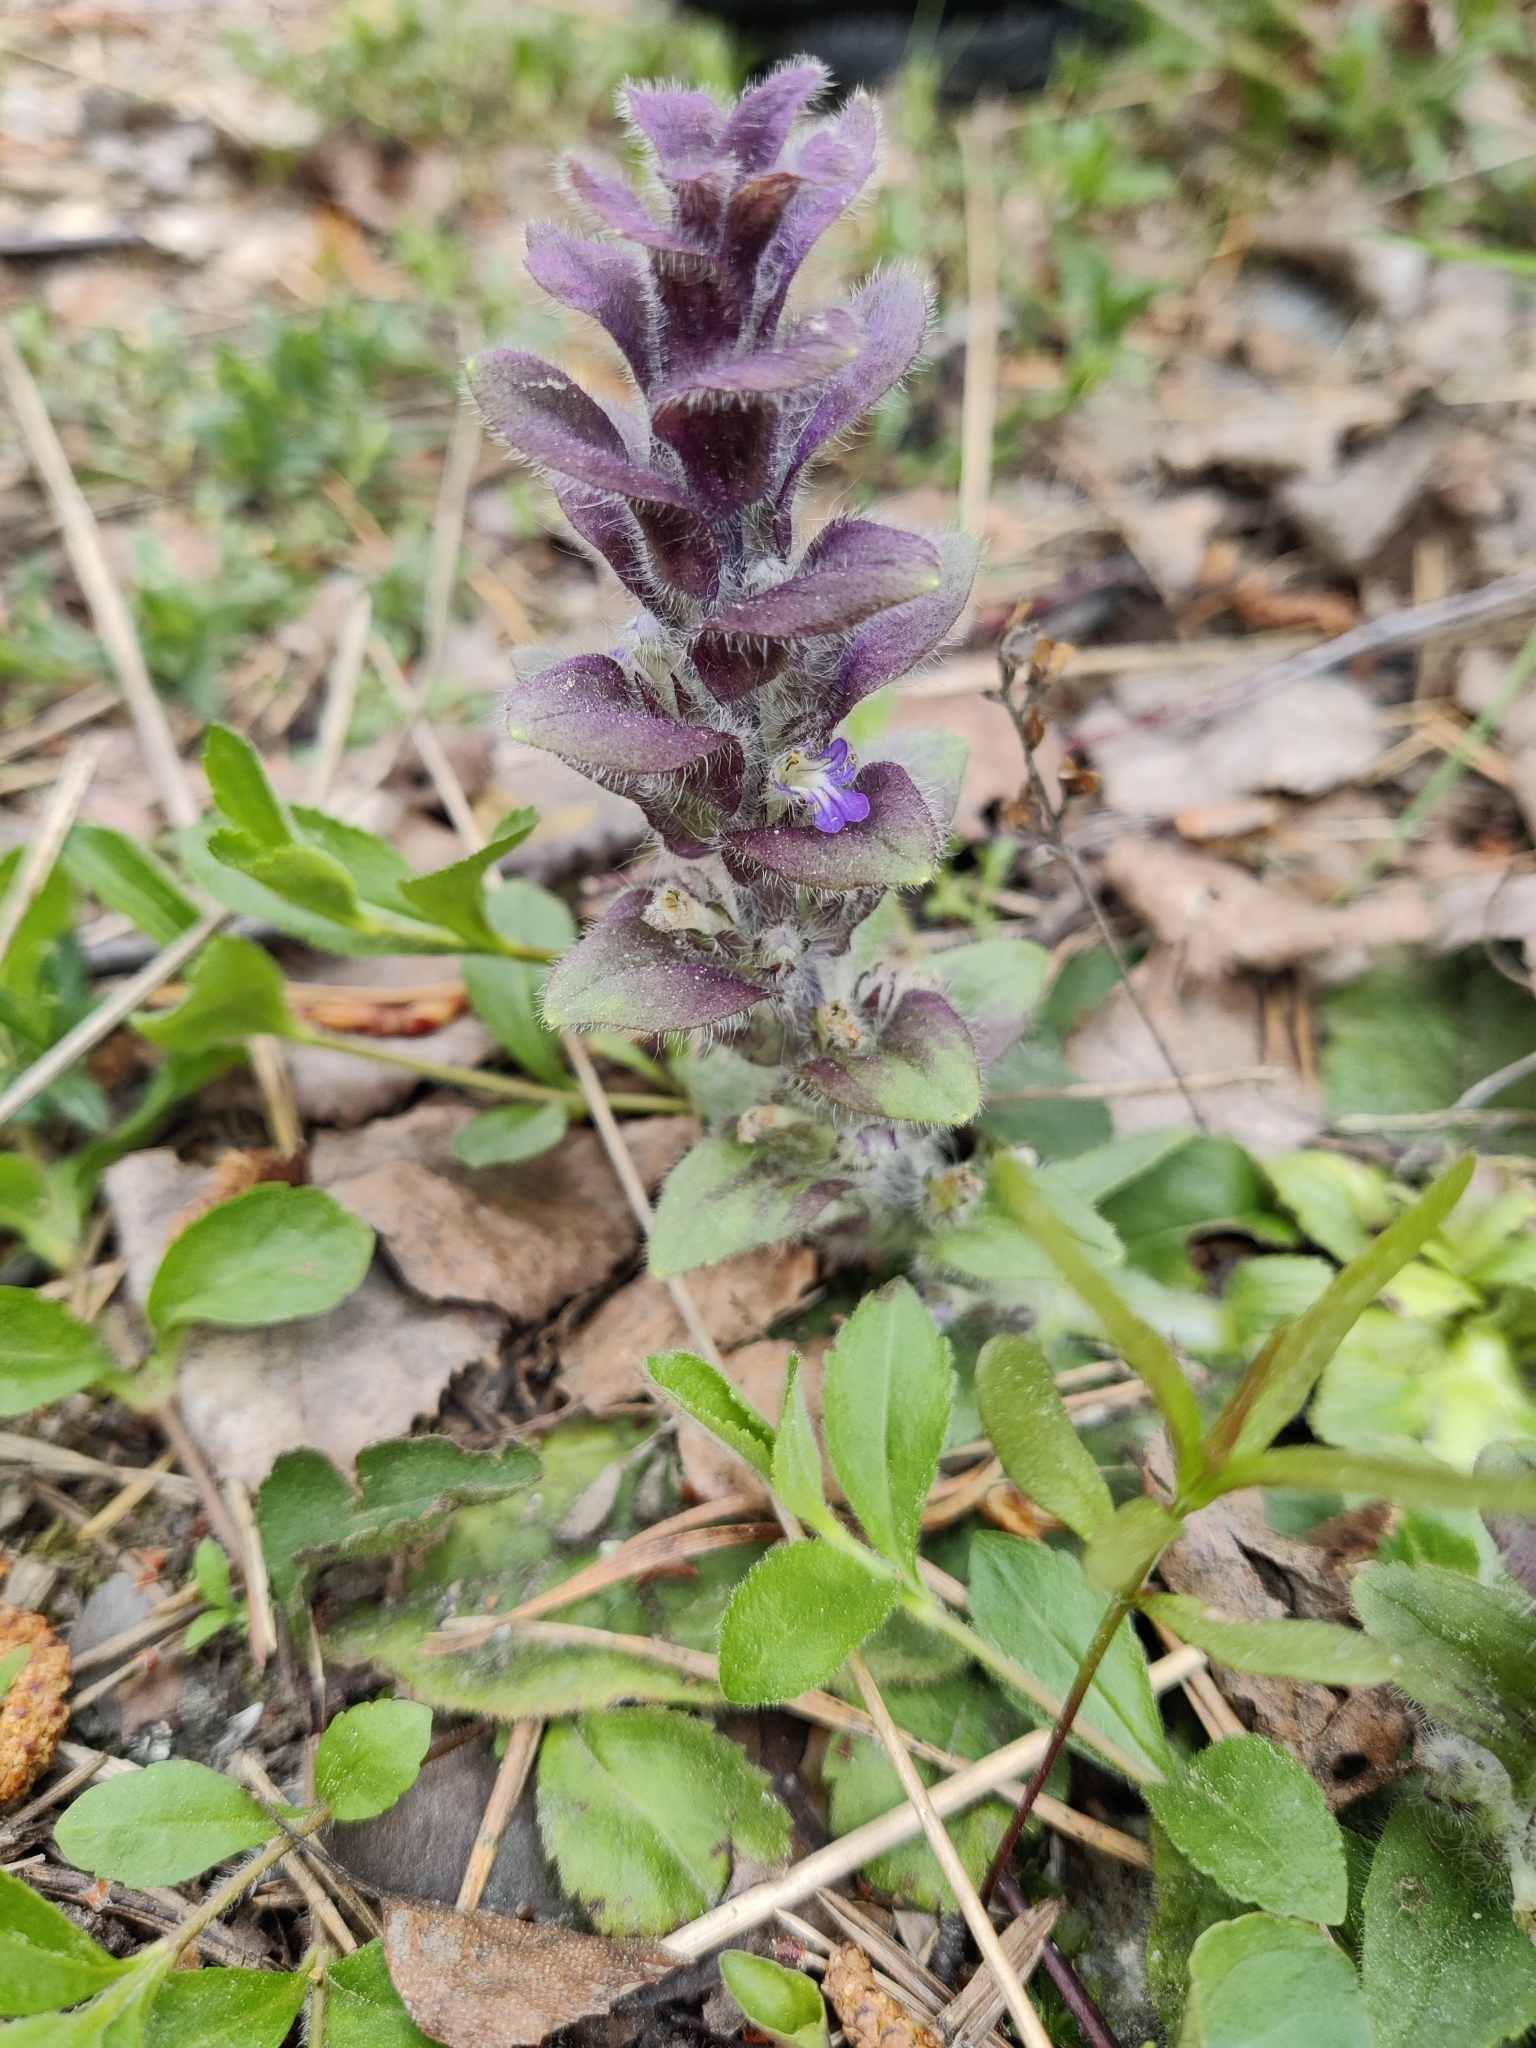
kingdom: Plantae
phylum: Tracheophyta
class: Magnoliopsida
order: Lamiales
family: Lamiaceae
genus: Ajuga
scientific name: Ajuga pyramidalis
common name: Pyramid bugle
